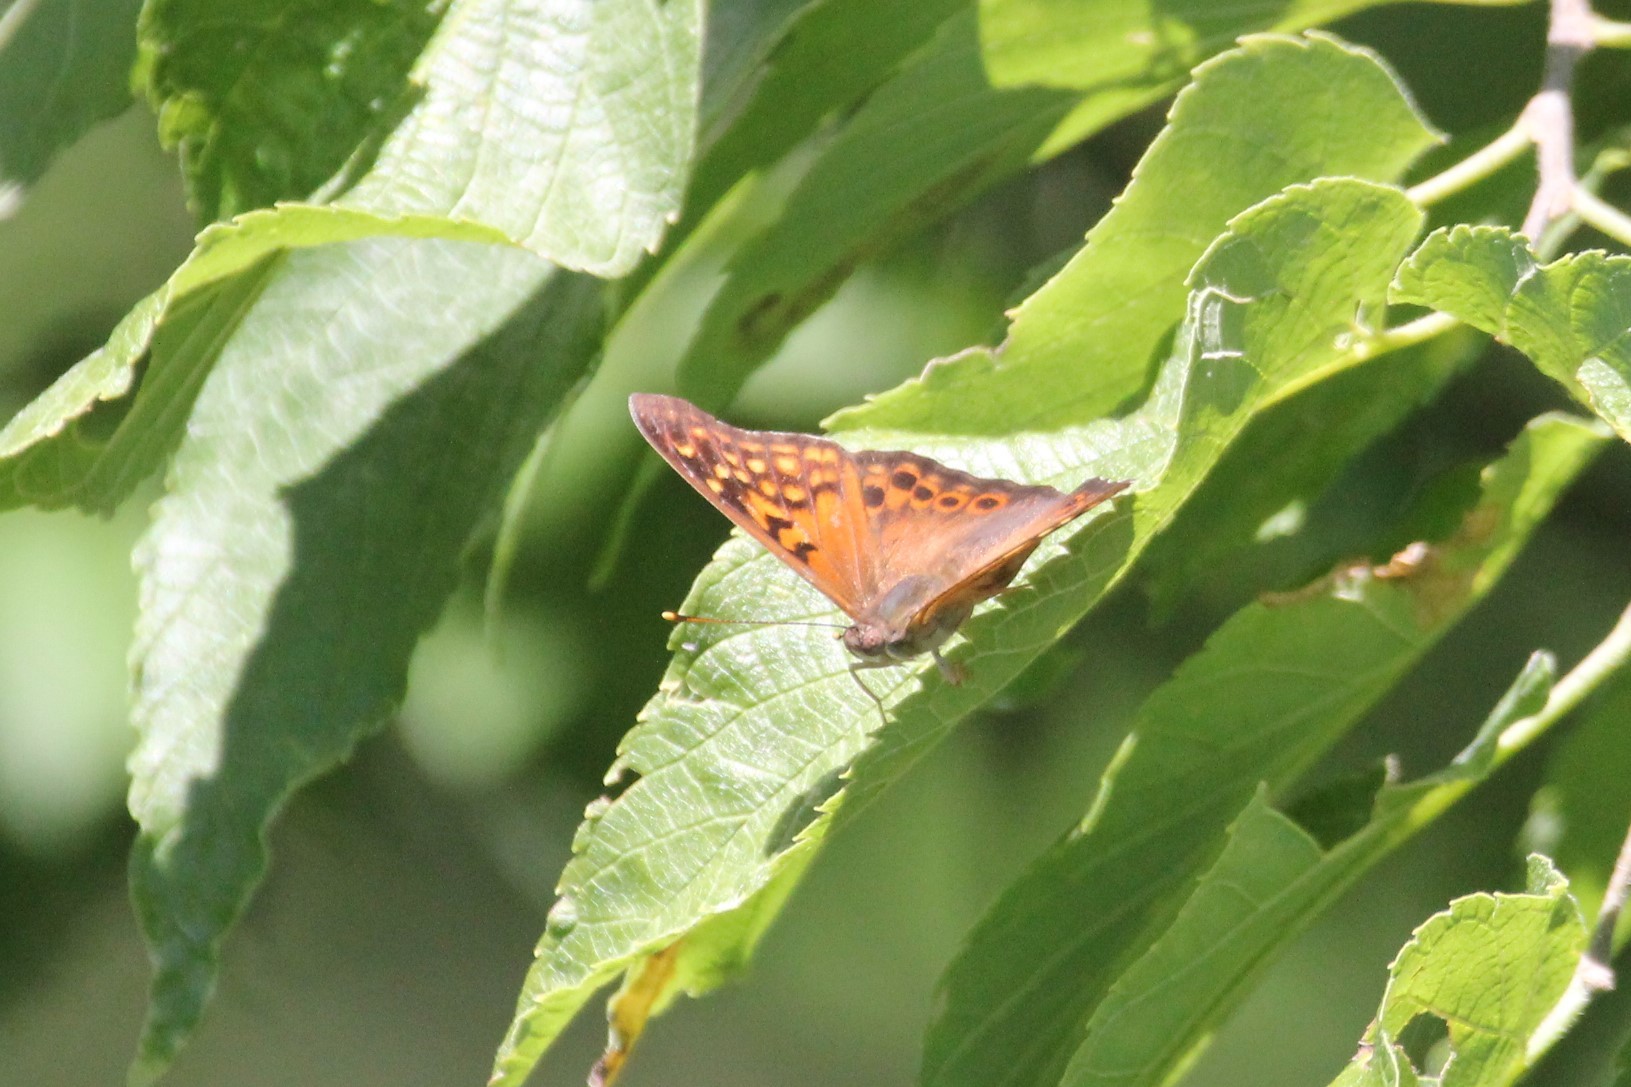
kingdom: Animalia
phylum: Arthropoda
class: Insecta
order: Lepidoptera
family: Nymphalidae
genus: Asterocampa
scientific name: Asterocampa clyton
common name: Tawny emperor
